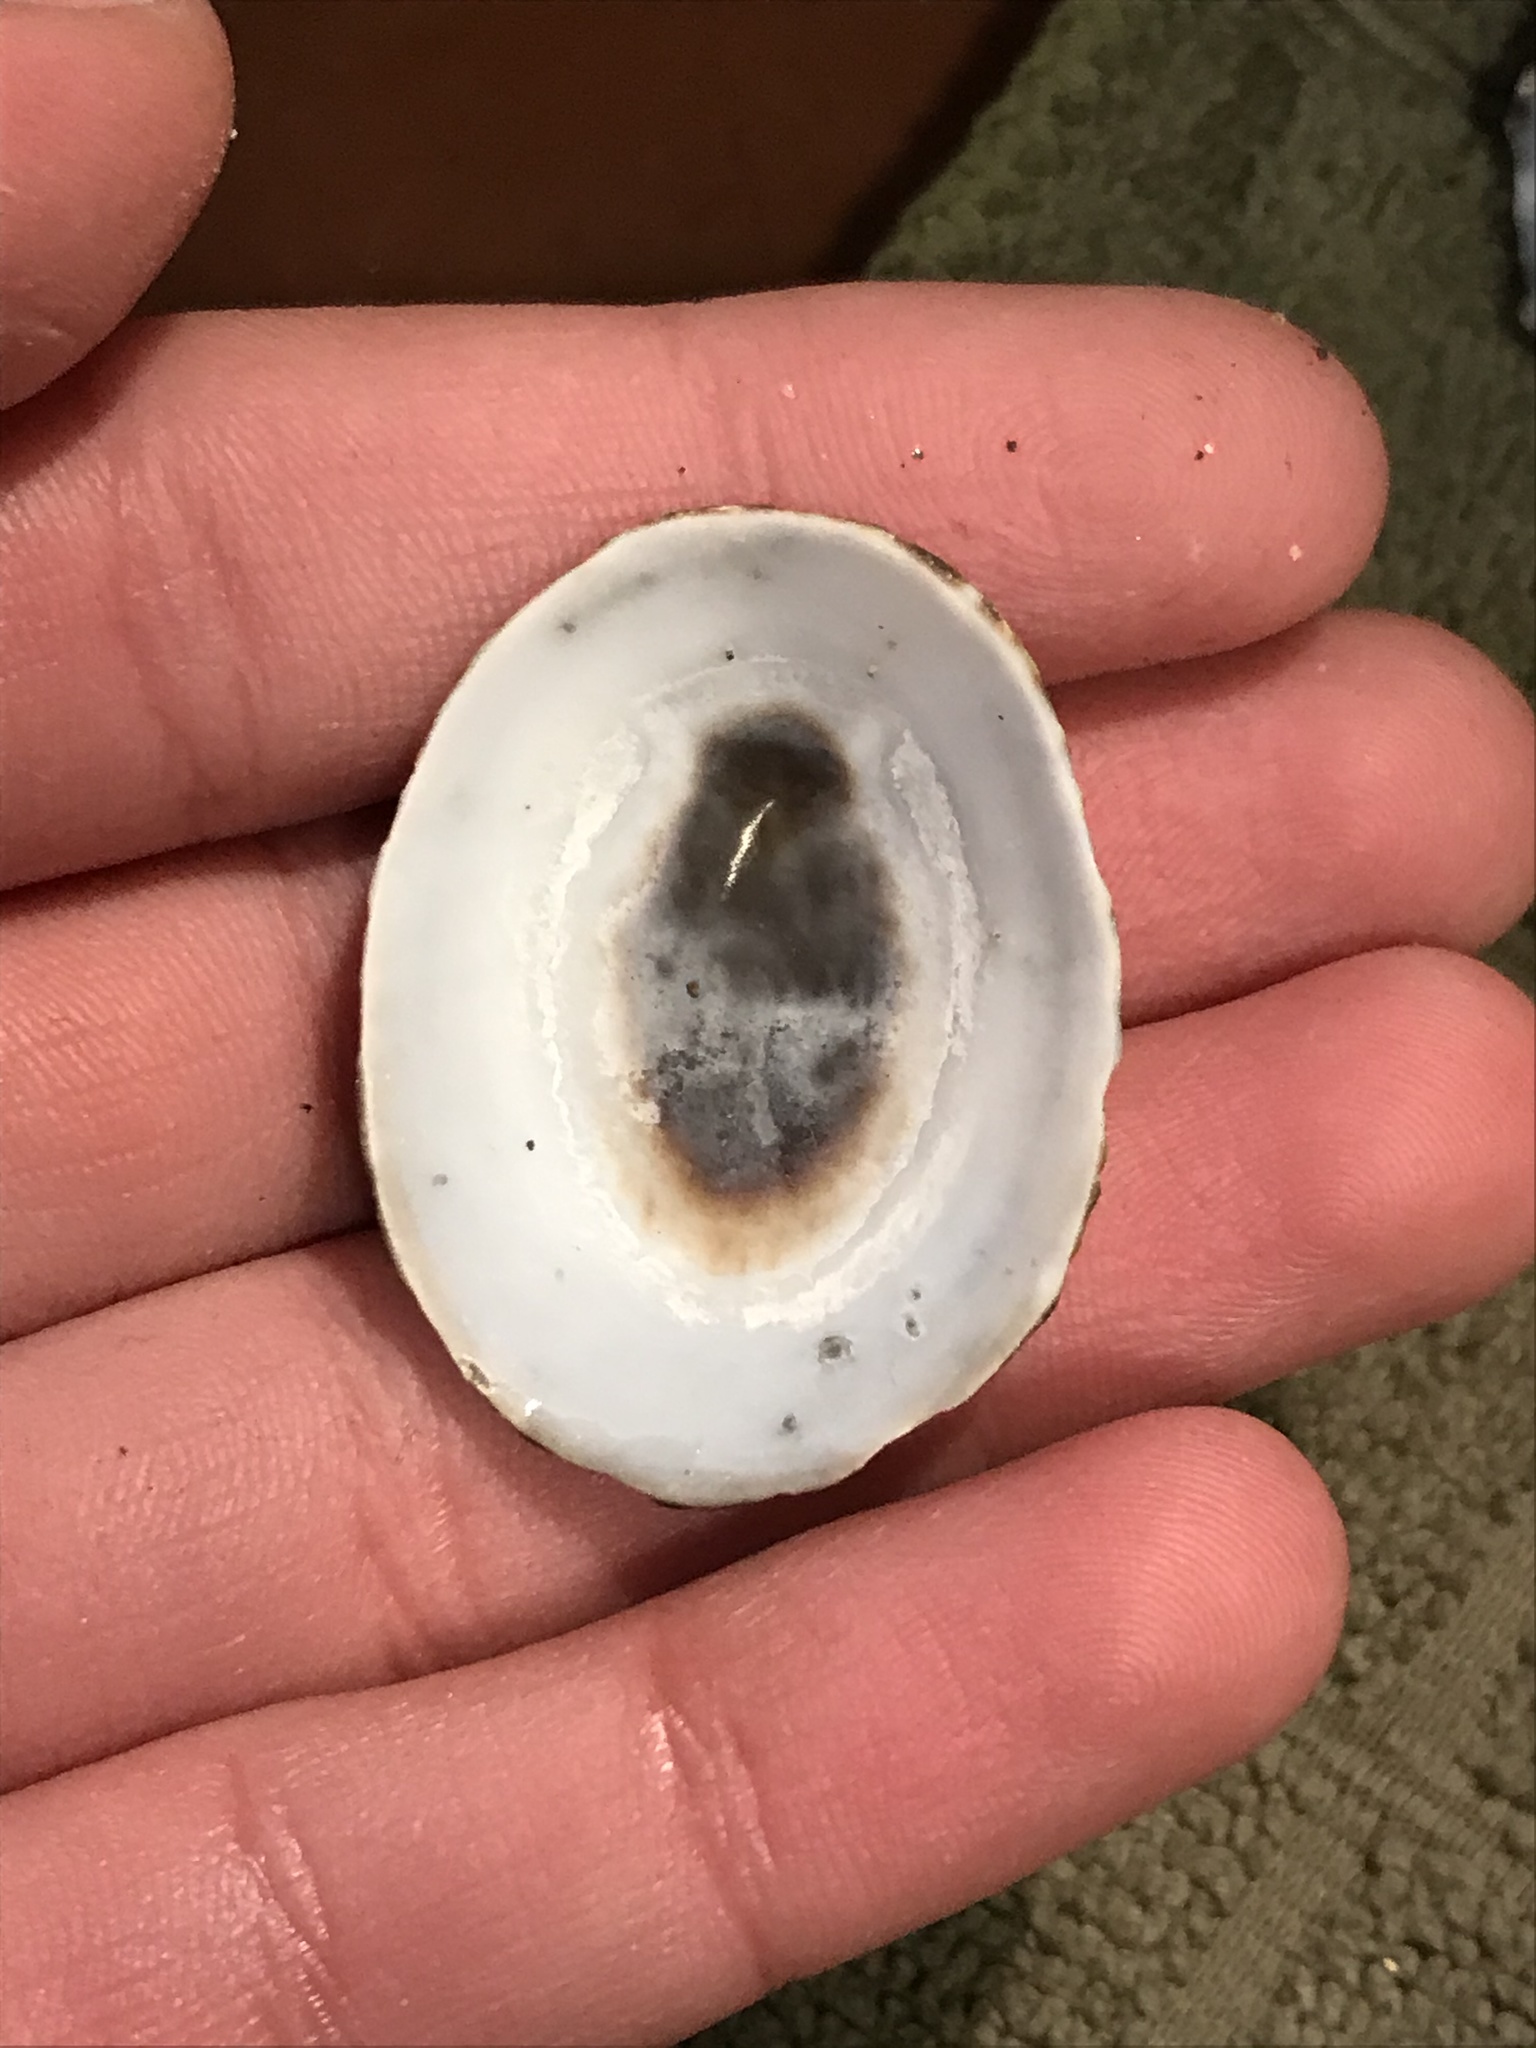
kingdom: Animalia
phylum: Mollusca
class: Gastropoda
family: Lottiidae
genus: Lottia
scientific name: Lottia limatula
